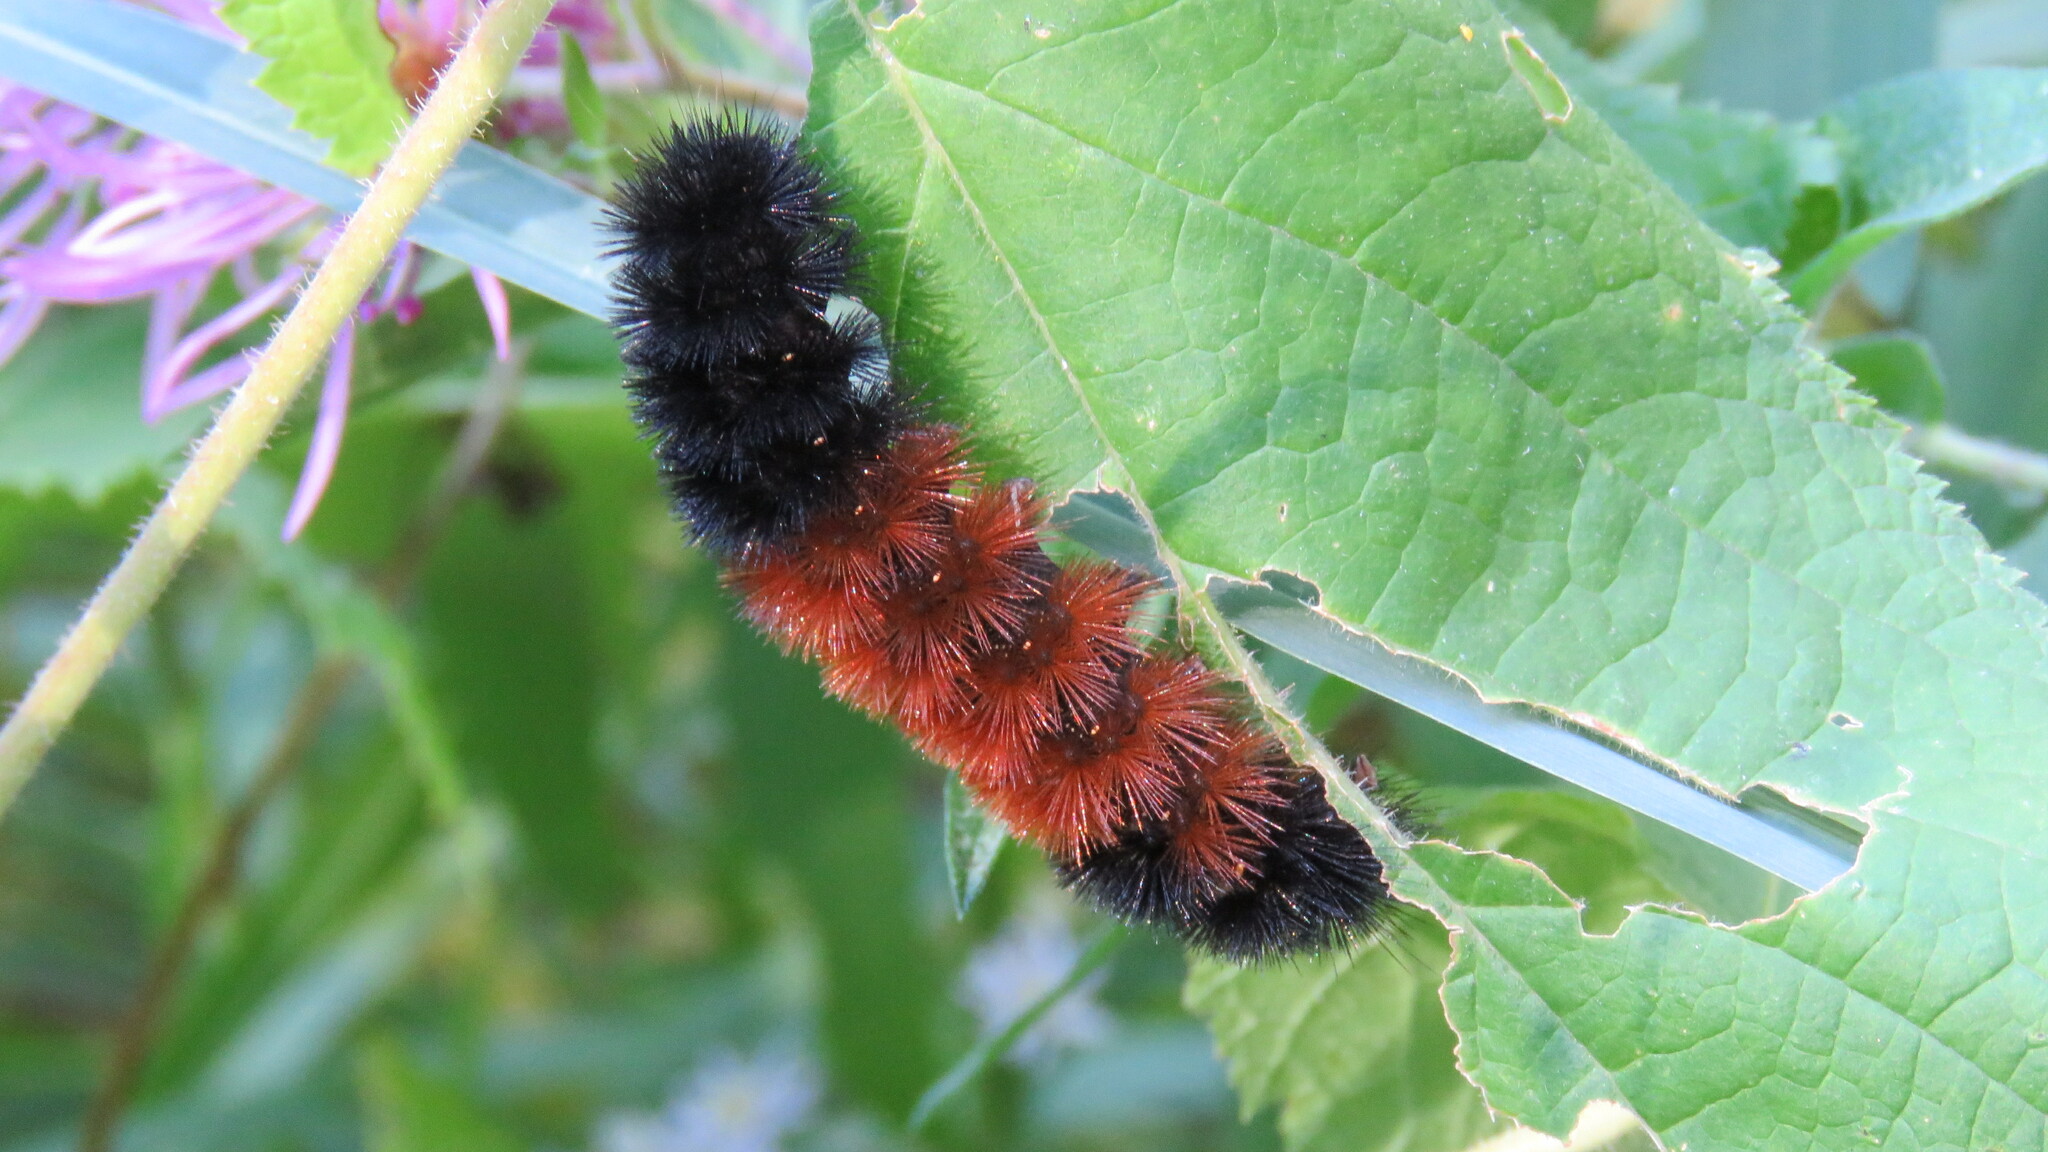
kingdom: Animalia
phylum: Arthropoda
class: Insecta
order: Lepidoptera
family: Erebidae
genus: Pyrrharctia
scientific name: Pyrrharctia isabella
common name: Isabella tiger moth
